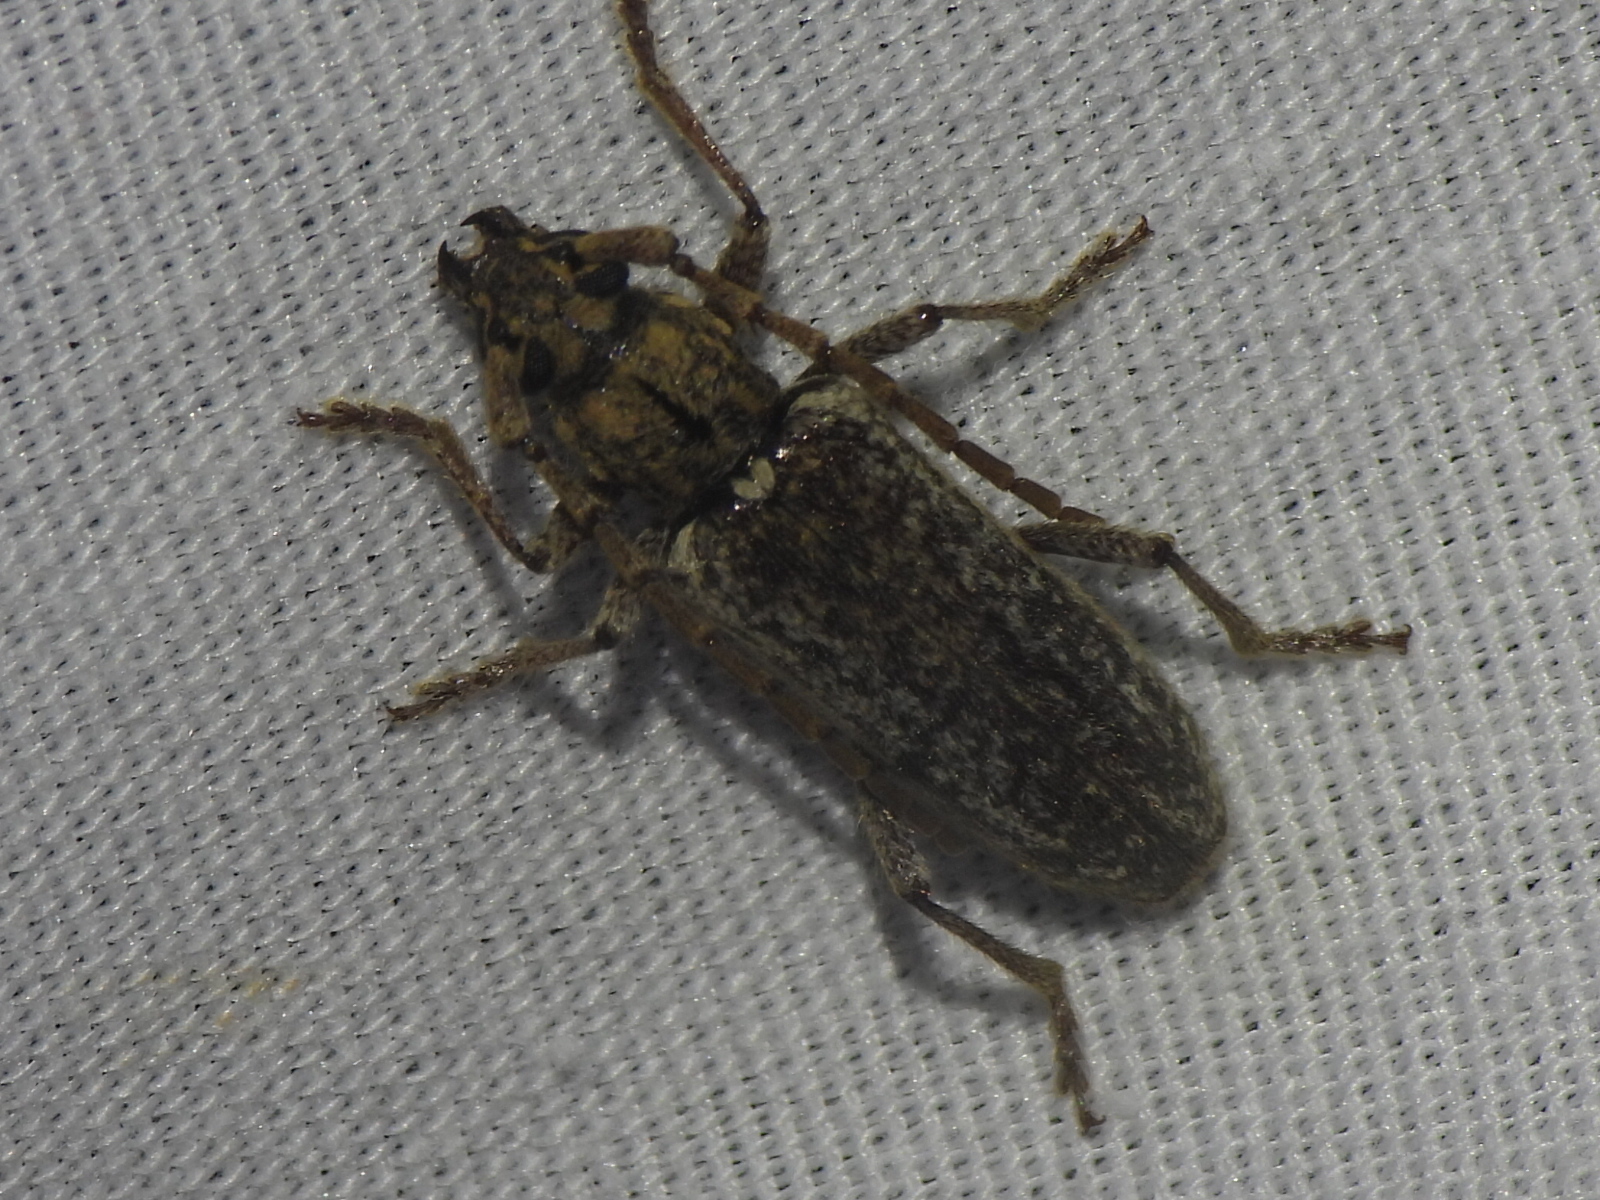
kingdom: Animalia
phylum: Arthropoda
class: Insecta
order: Coleoptera
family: Cerambycidae
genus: Anelaphus
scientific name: Anelaphus debilis
